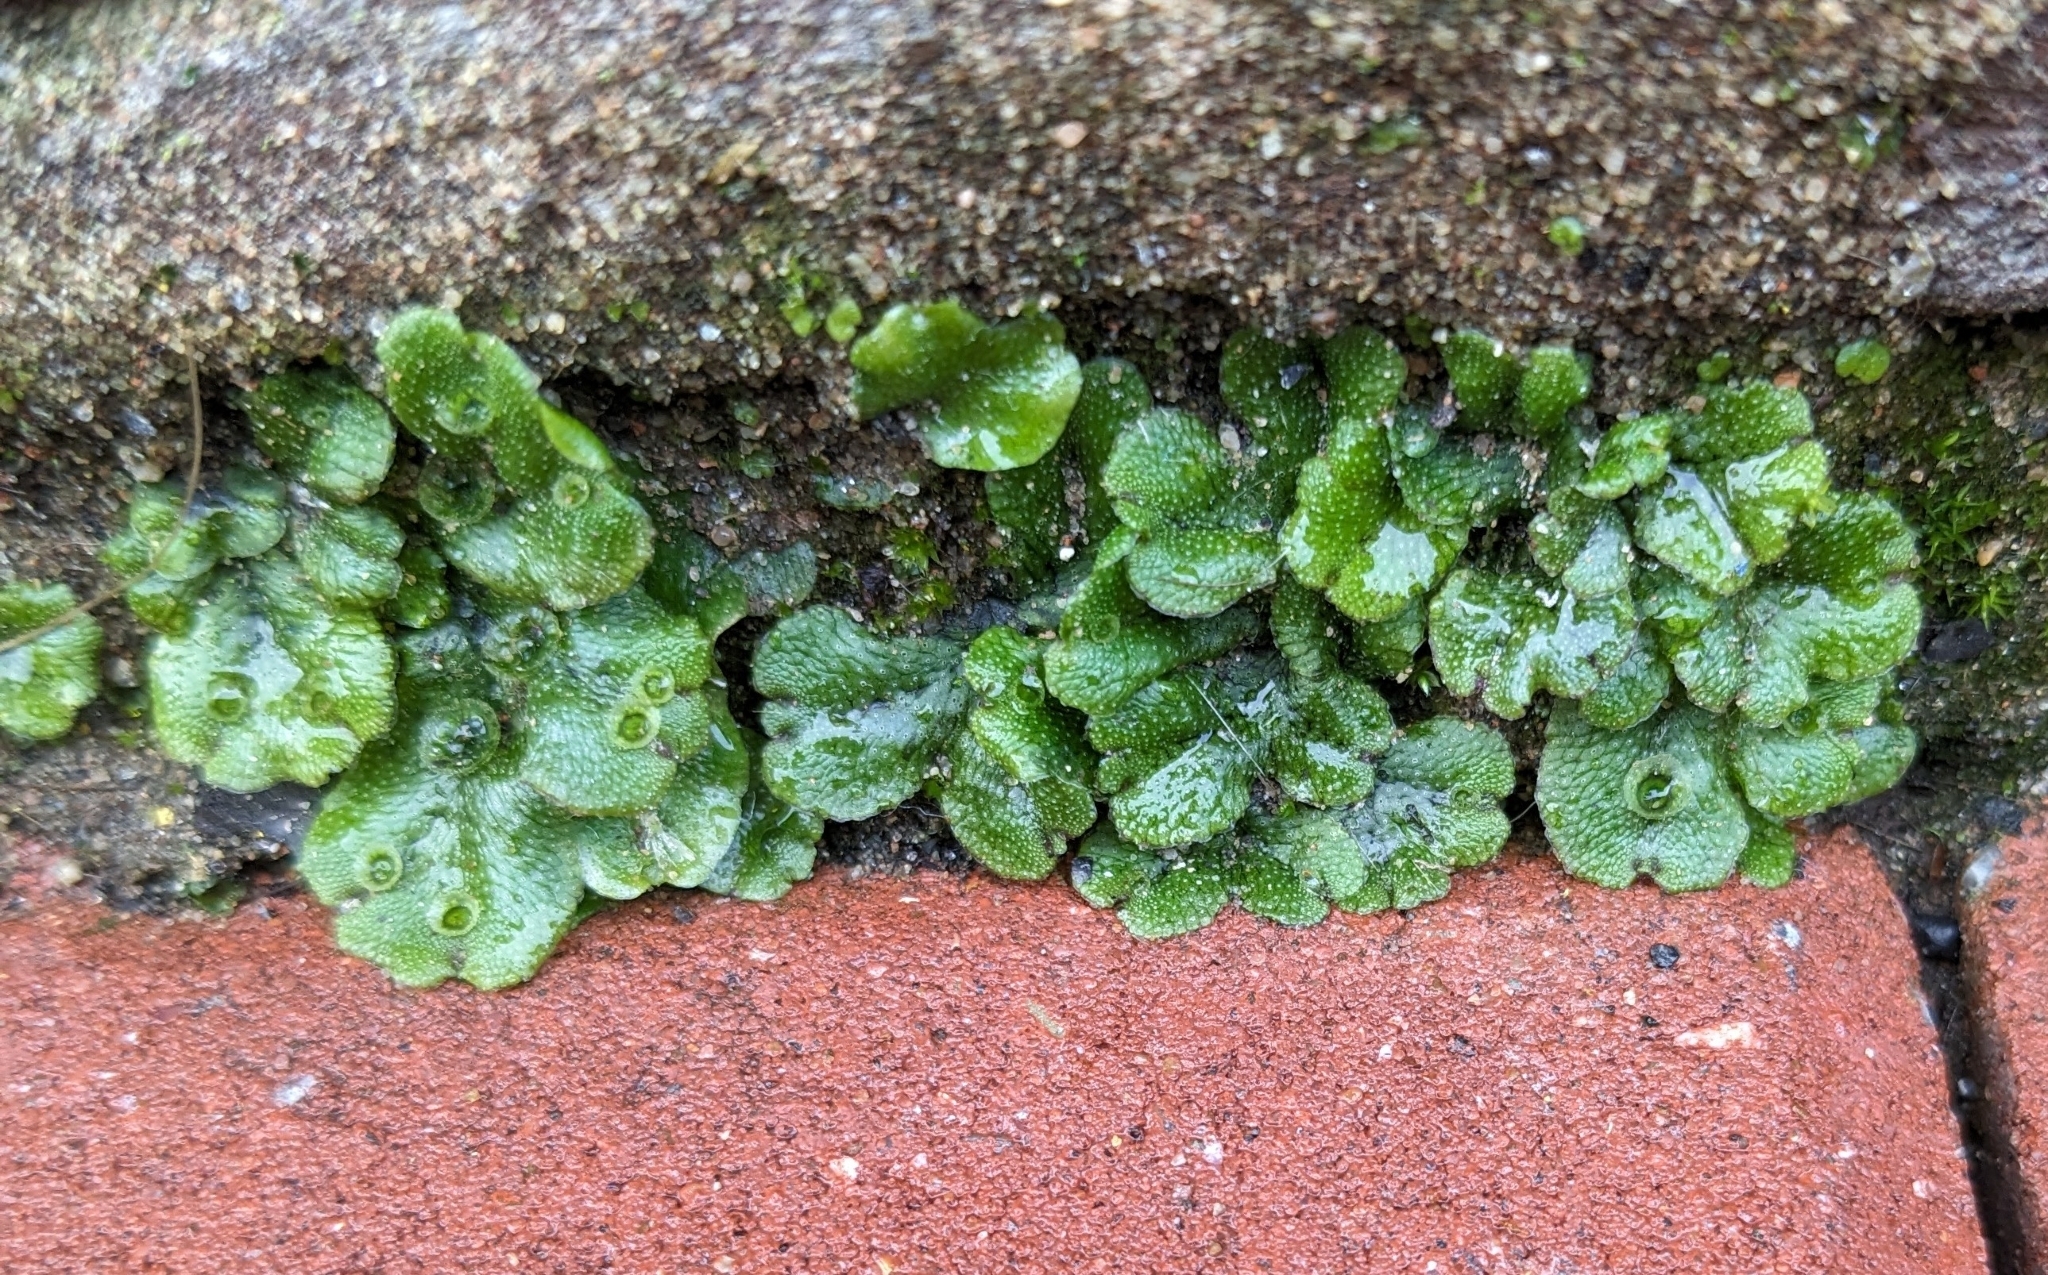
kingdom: Plantae
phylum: Marchantiophyta
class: Marchantiopsida
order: Marchantiales
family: Marchantiaceae
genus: Marchantia
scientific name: Marchantia polymorpha
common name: Common liverwort
